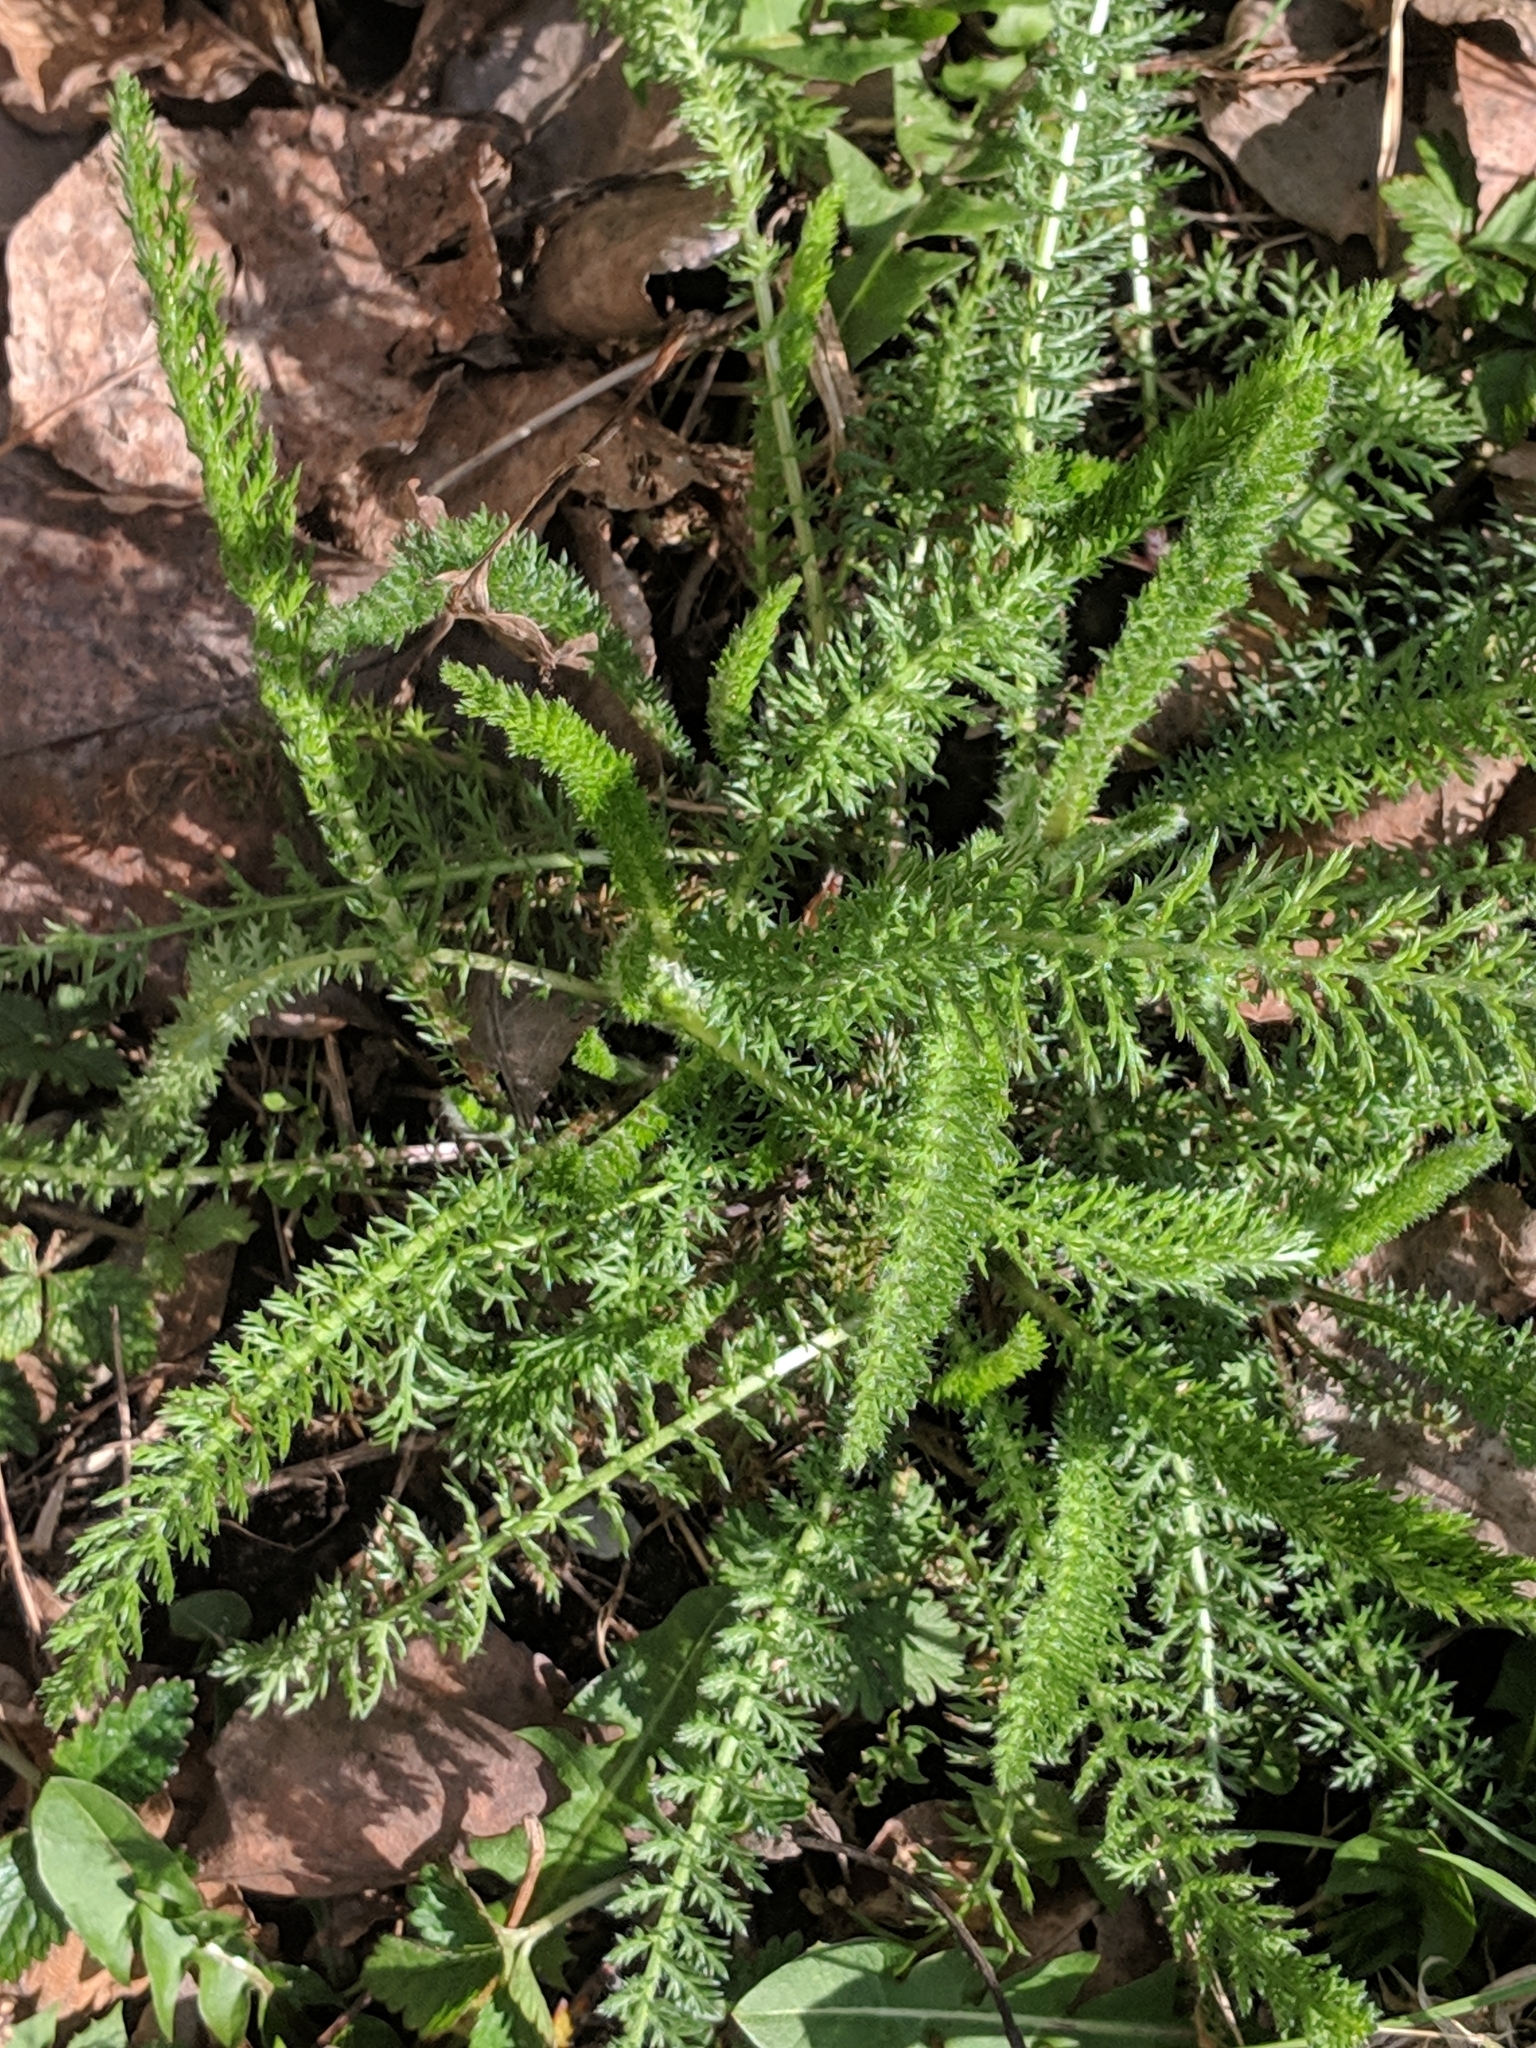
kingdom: Plantae
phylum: Tracheophyta
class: Magnoliopsida
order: Asterales
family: Asteraceae
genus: Achillea
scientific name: Achillea millefolium
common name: Yarrow
